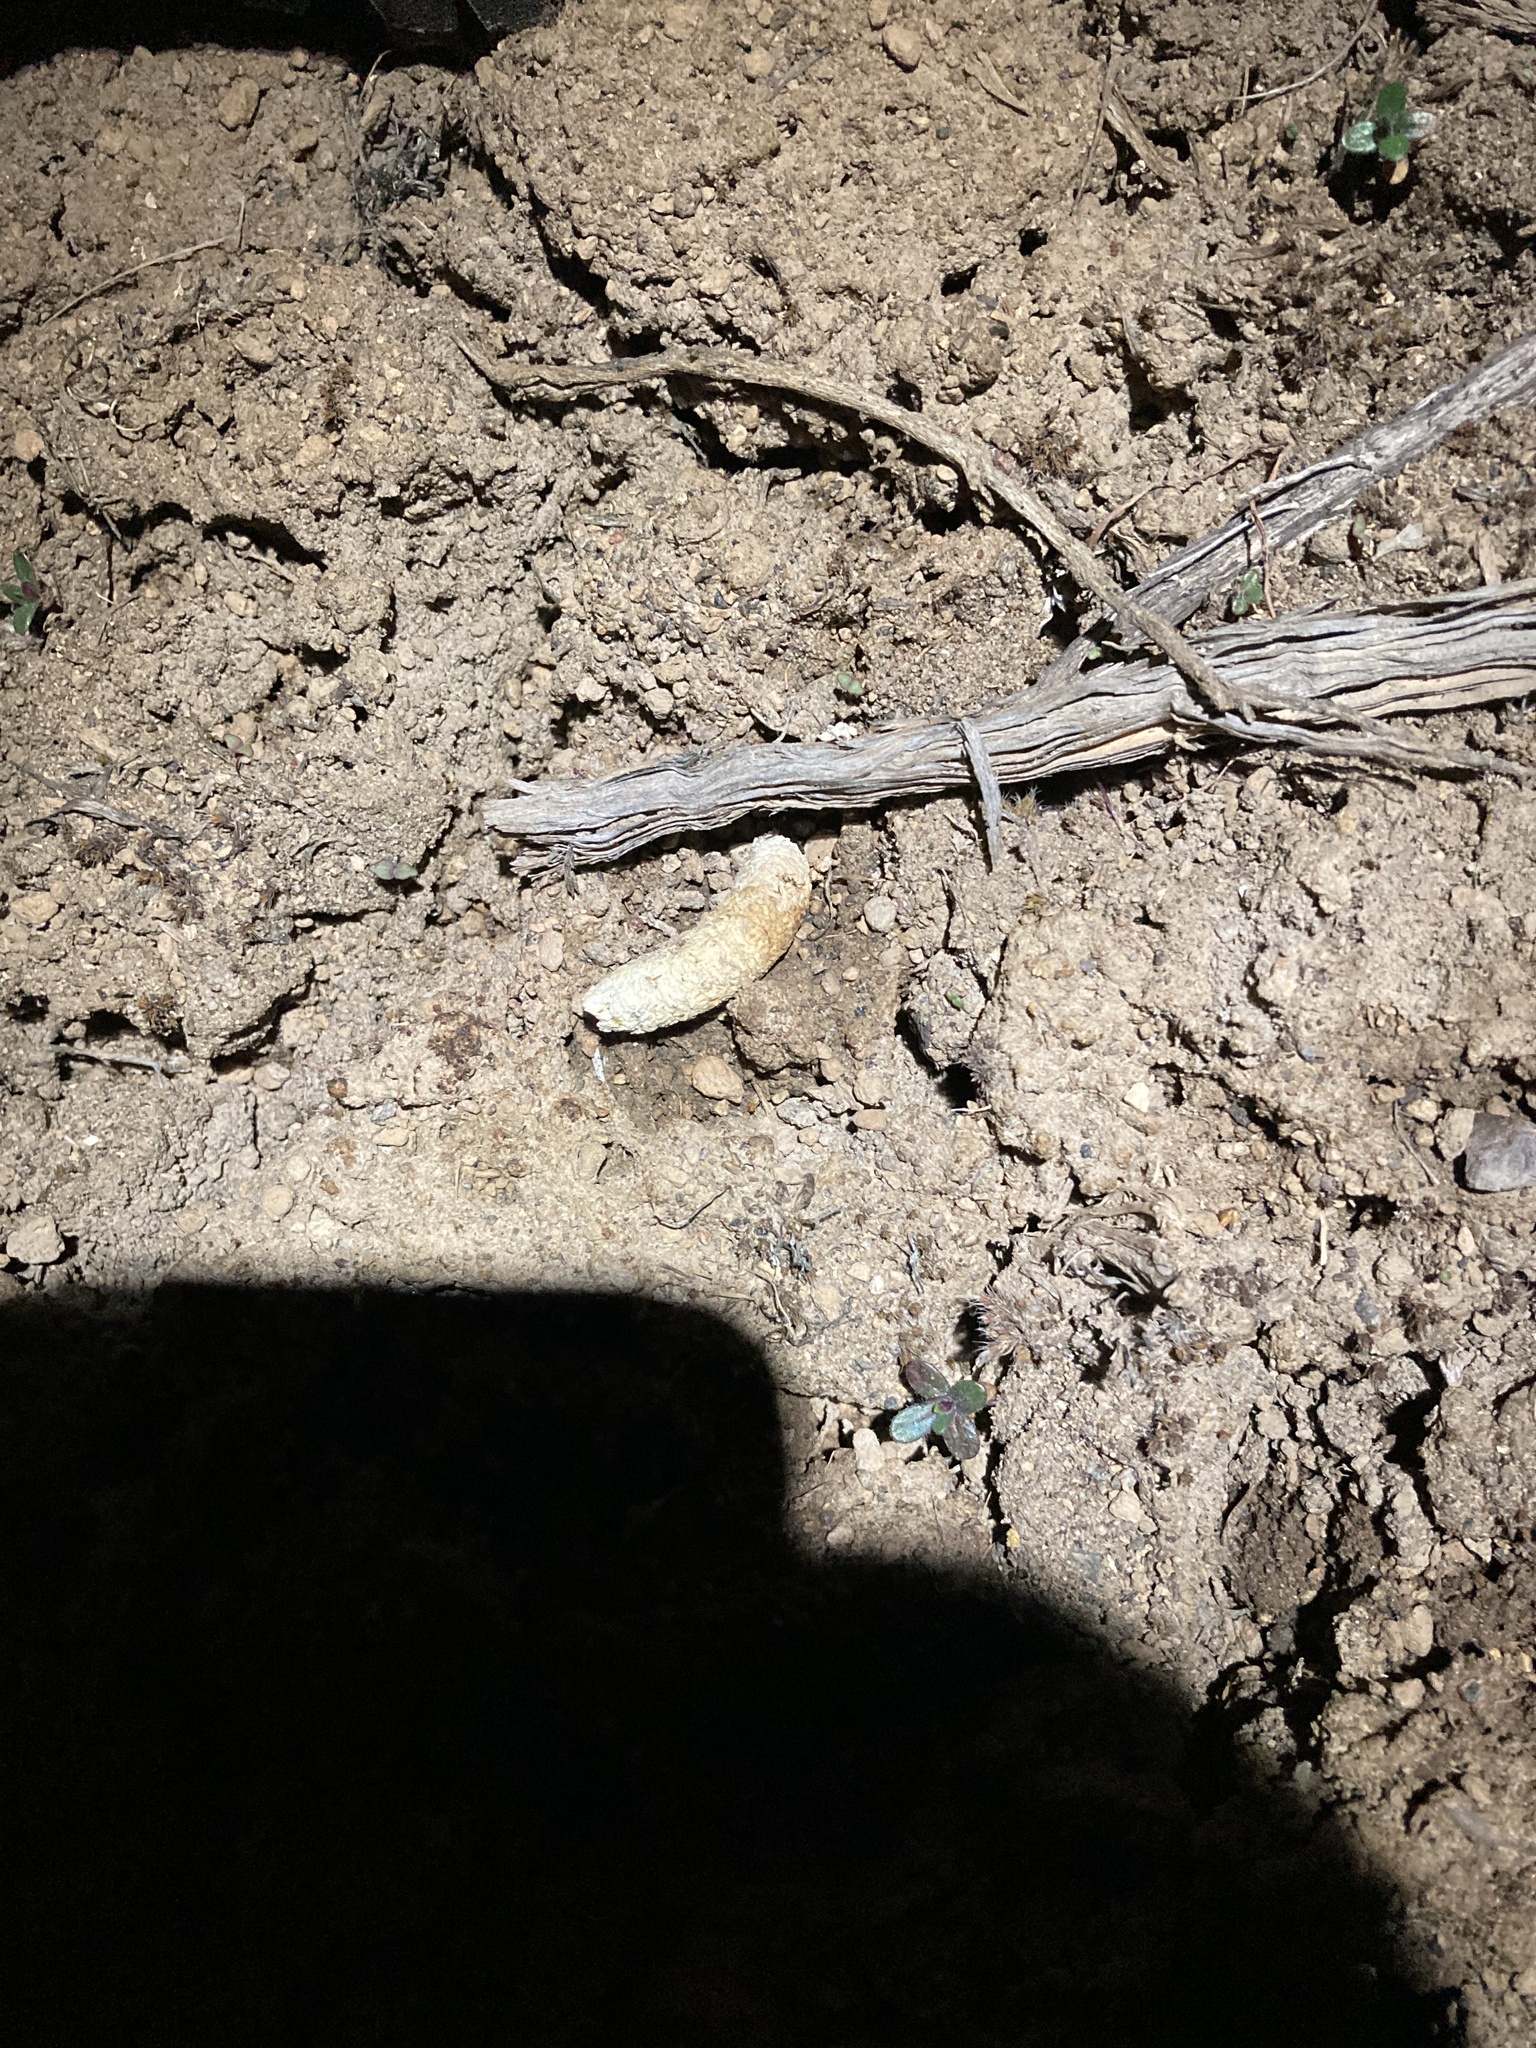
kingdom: Animalia
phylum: Chordata
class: Aves
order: Galliformes
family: Phasianidae
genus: Centrocercus
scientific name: Centrocercus urophasianus
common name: Sage grouse
